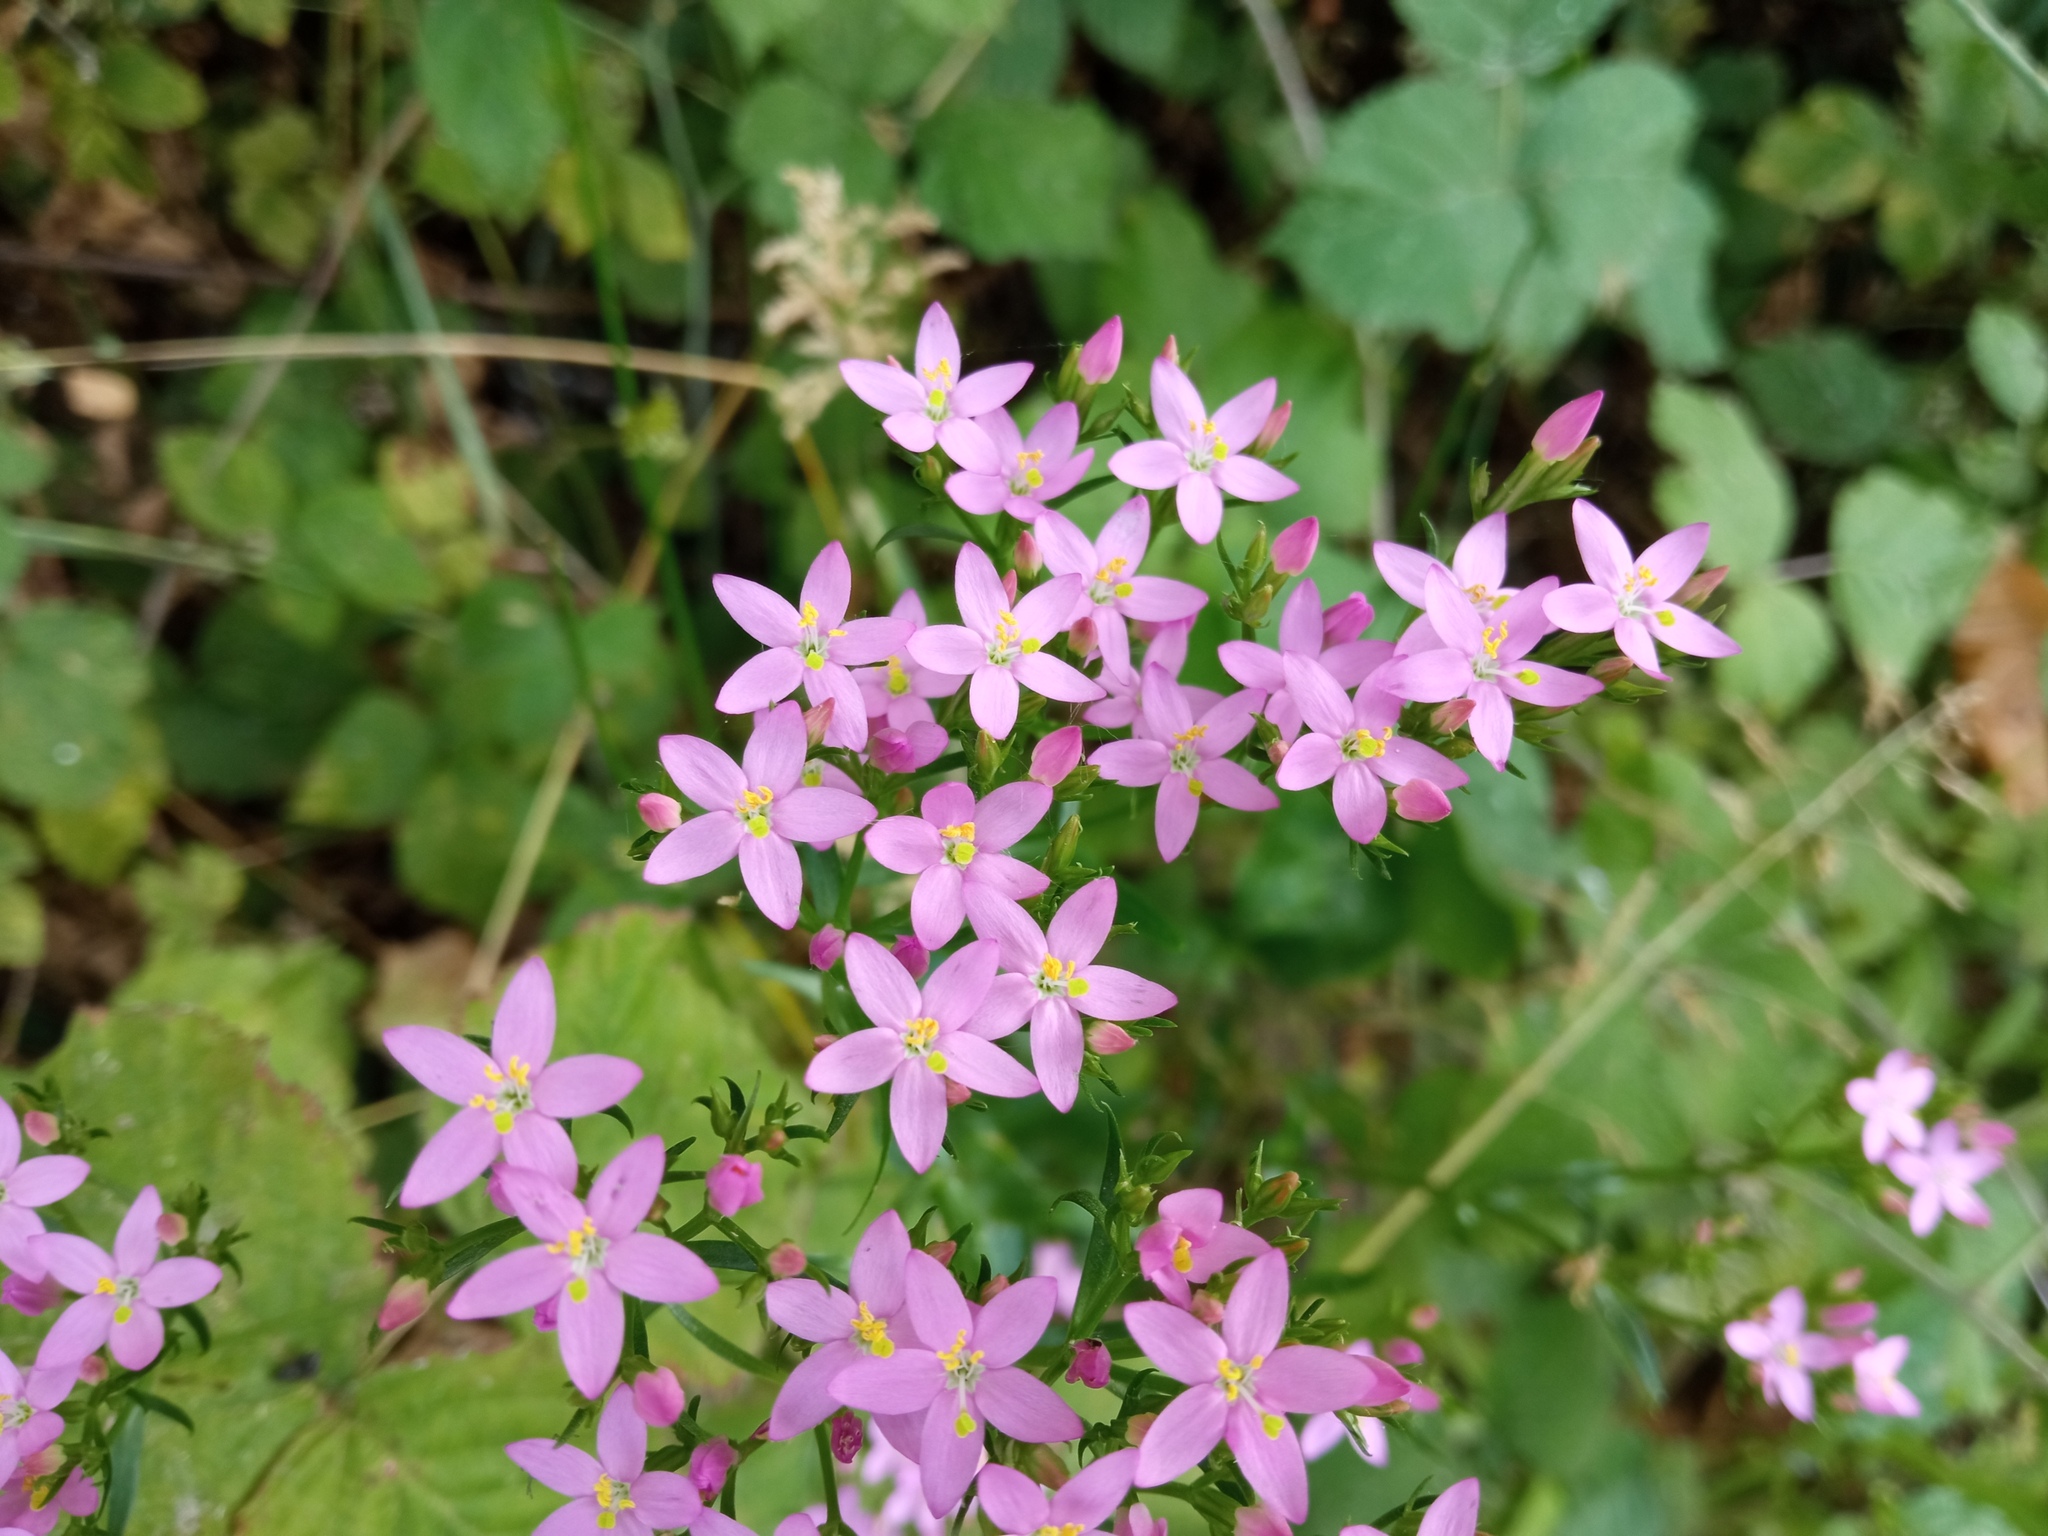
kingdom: Plantae
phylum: Tracheophyta
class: Magnoliopsida
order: Gentianales
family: Gentianaceae
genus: Centaurium
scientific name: Centaurium erythraea
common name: Common centaury
